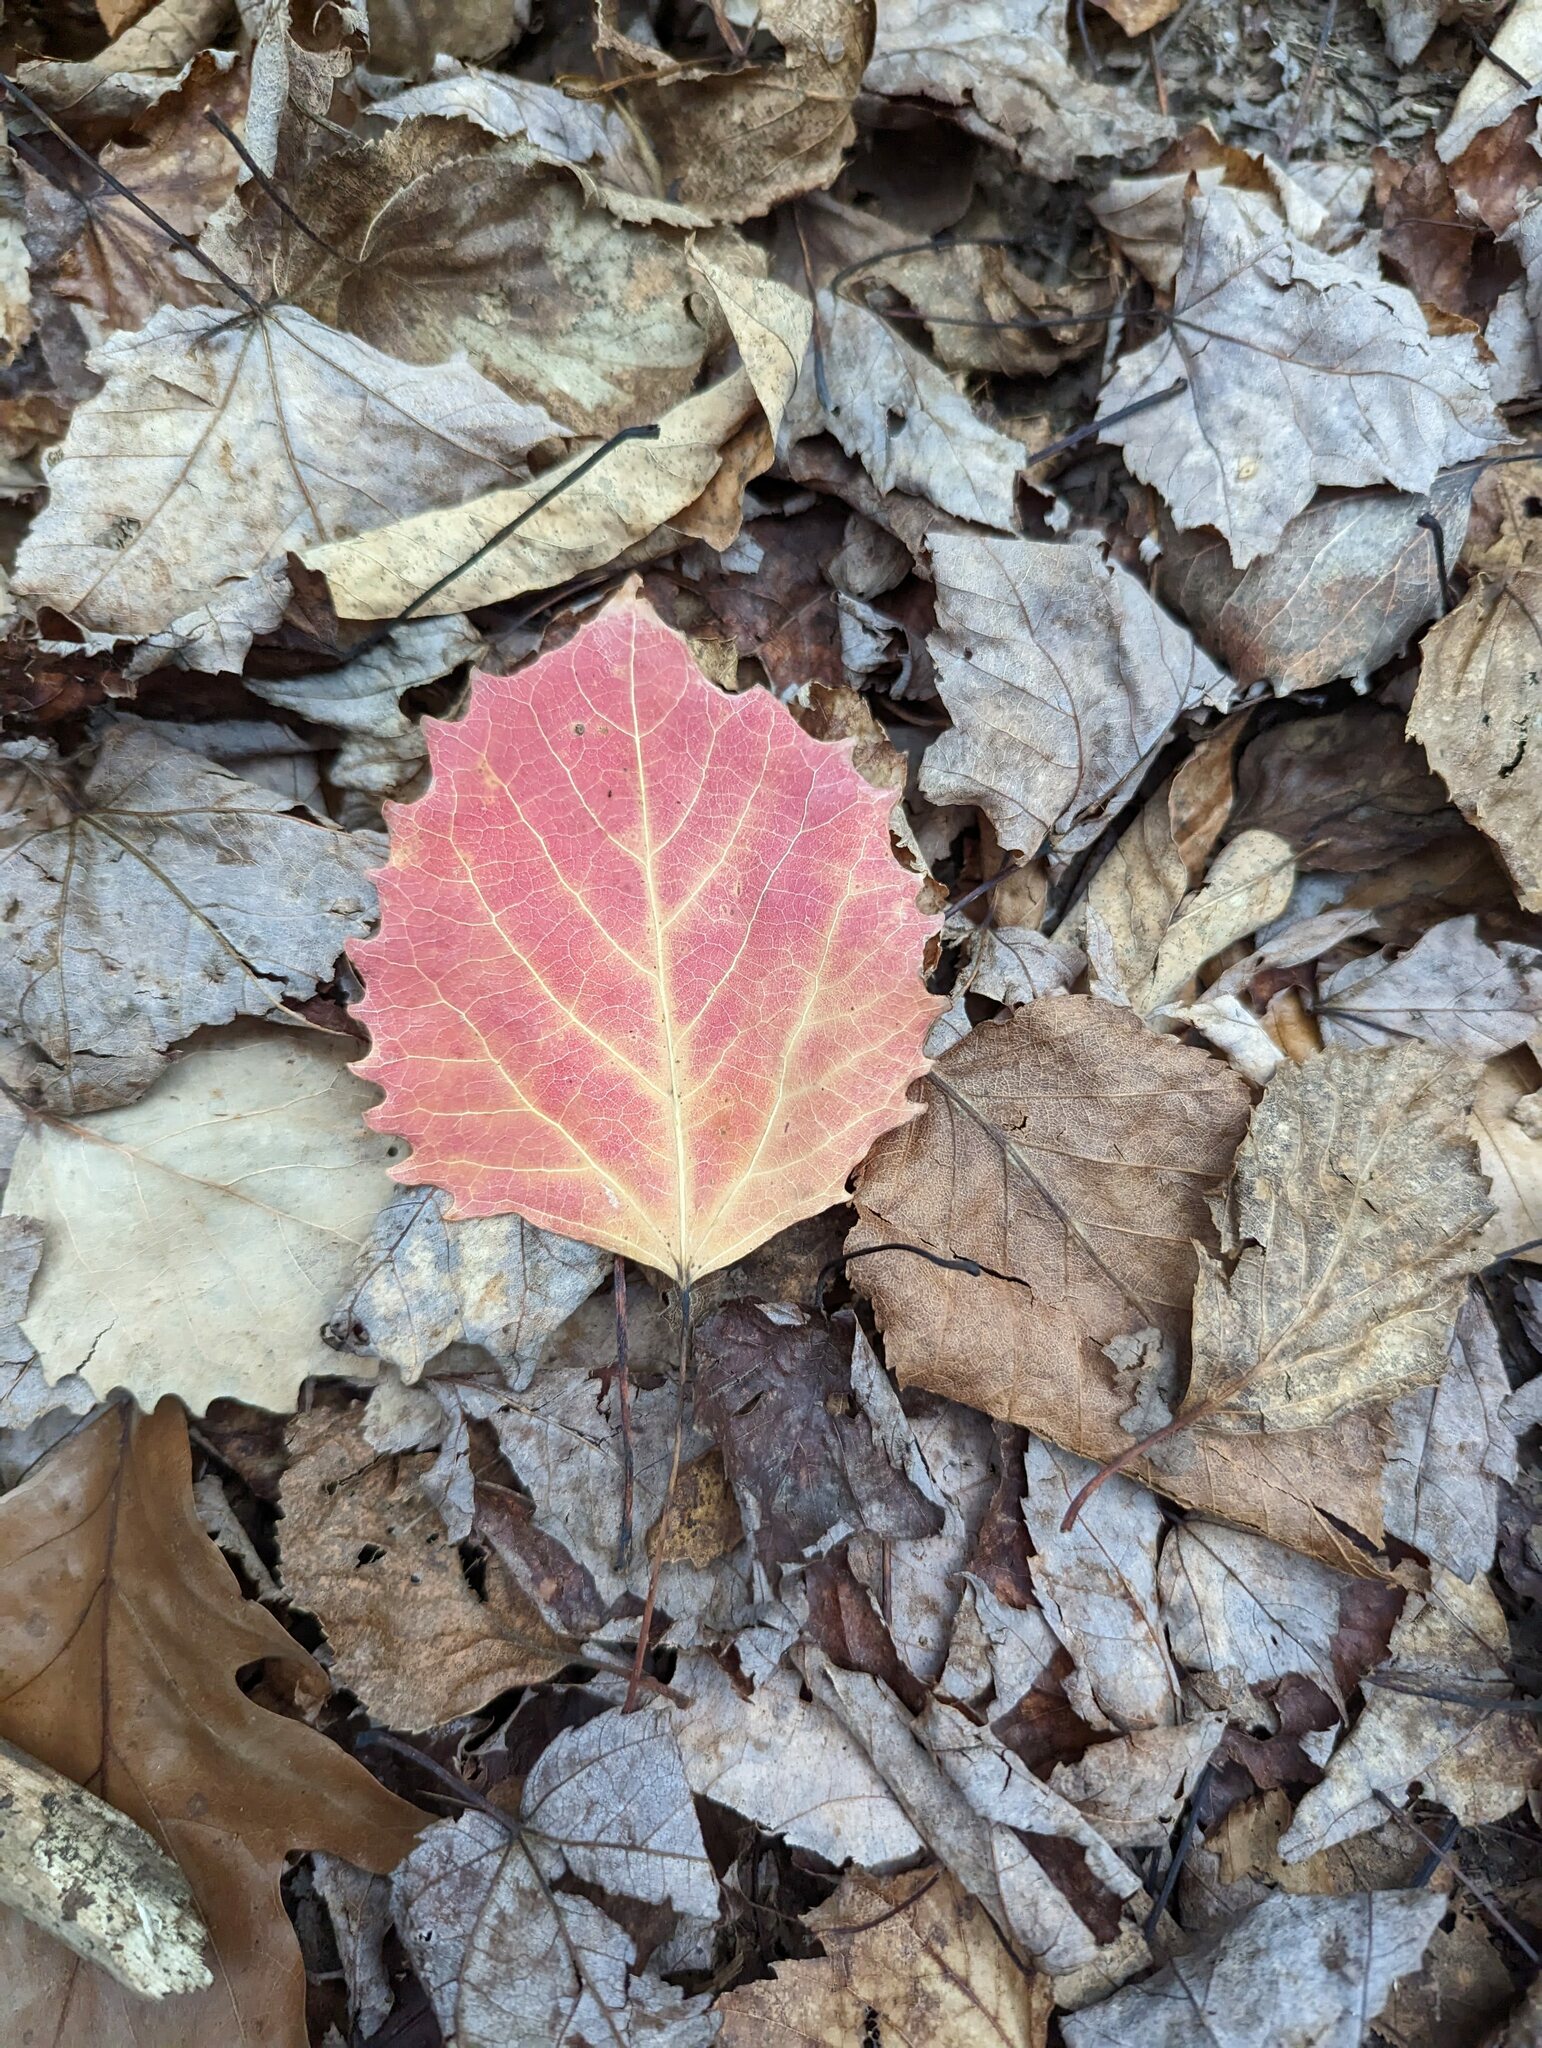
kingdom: Plantae
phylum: Tracheophyta
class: Magnoliopsida
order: Malpighiales
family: Salicaceae
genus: Populus
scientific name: Populus grandidentata
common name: Bigtooth aspen
